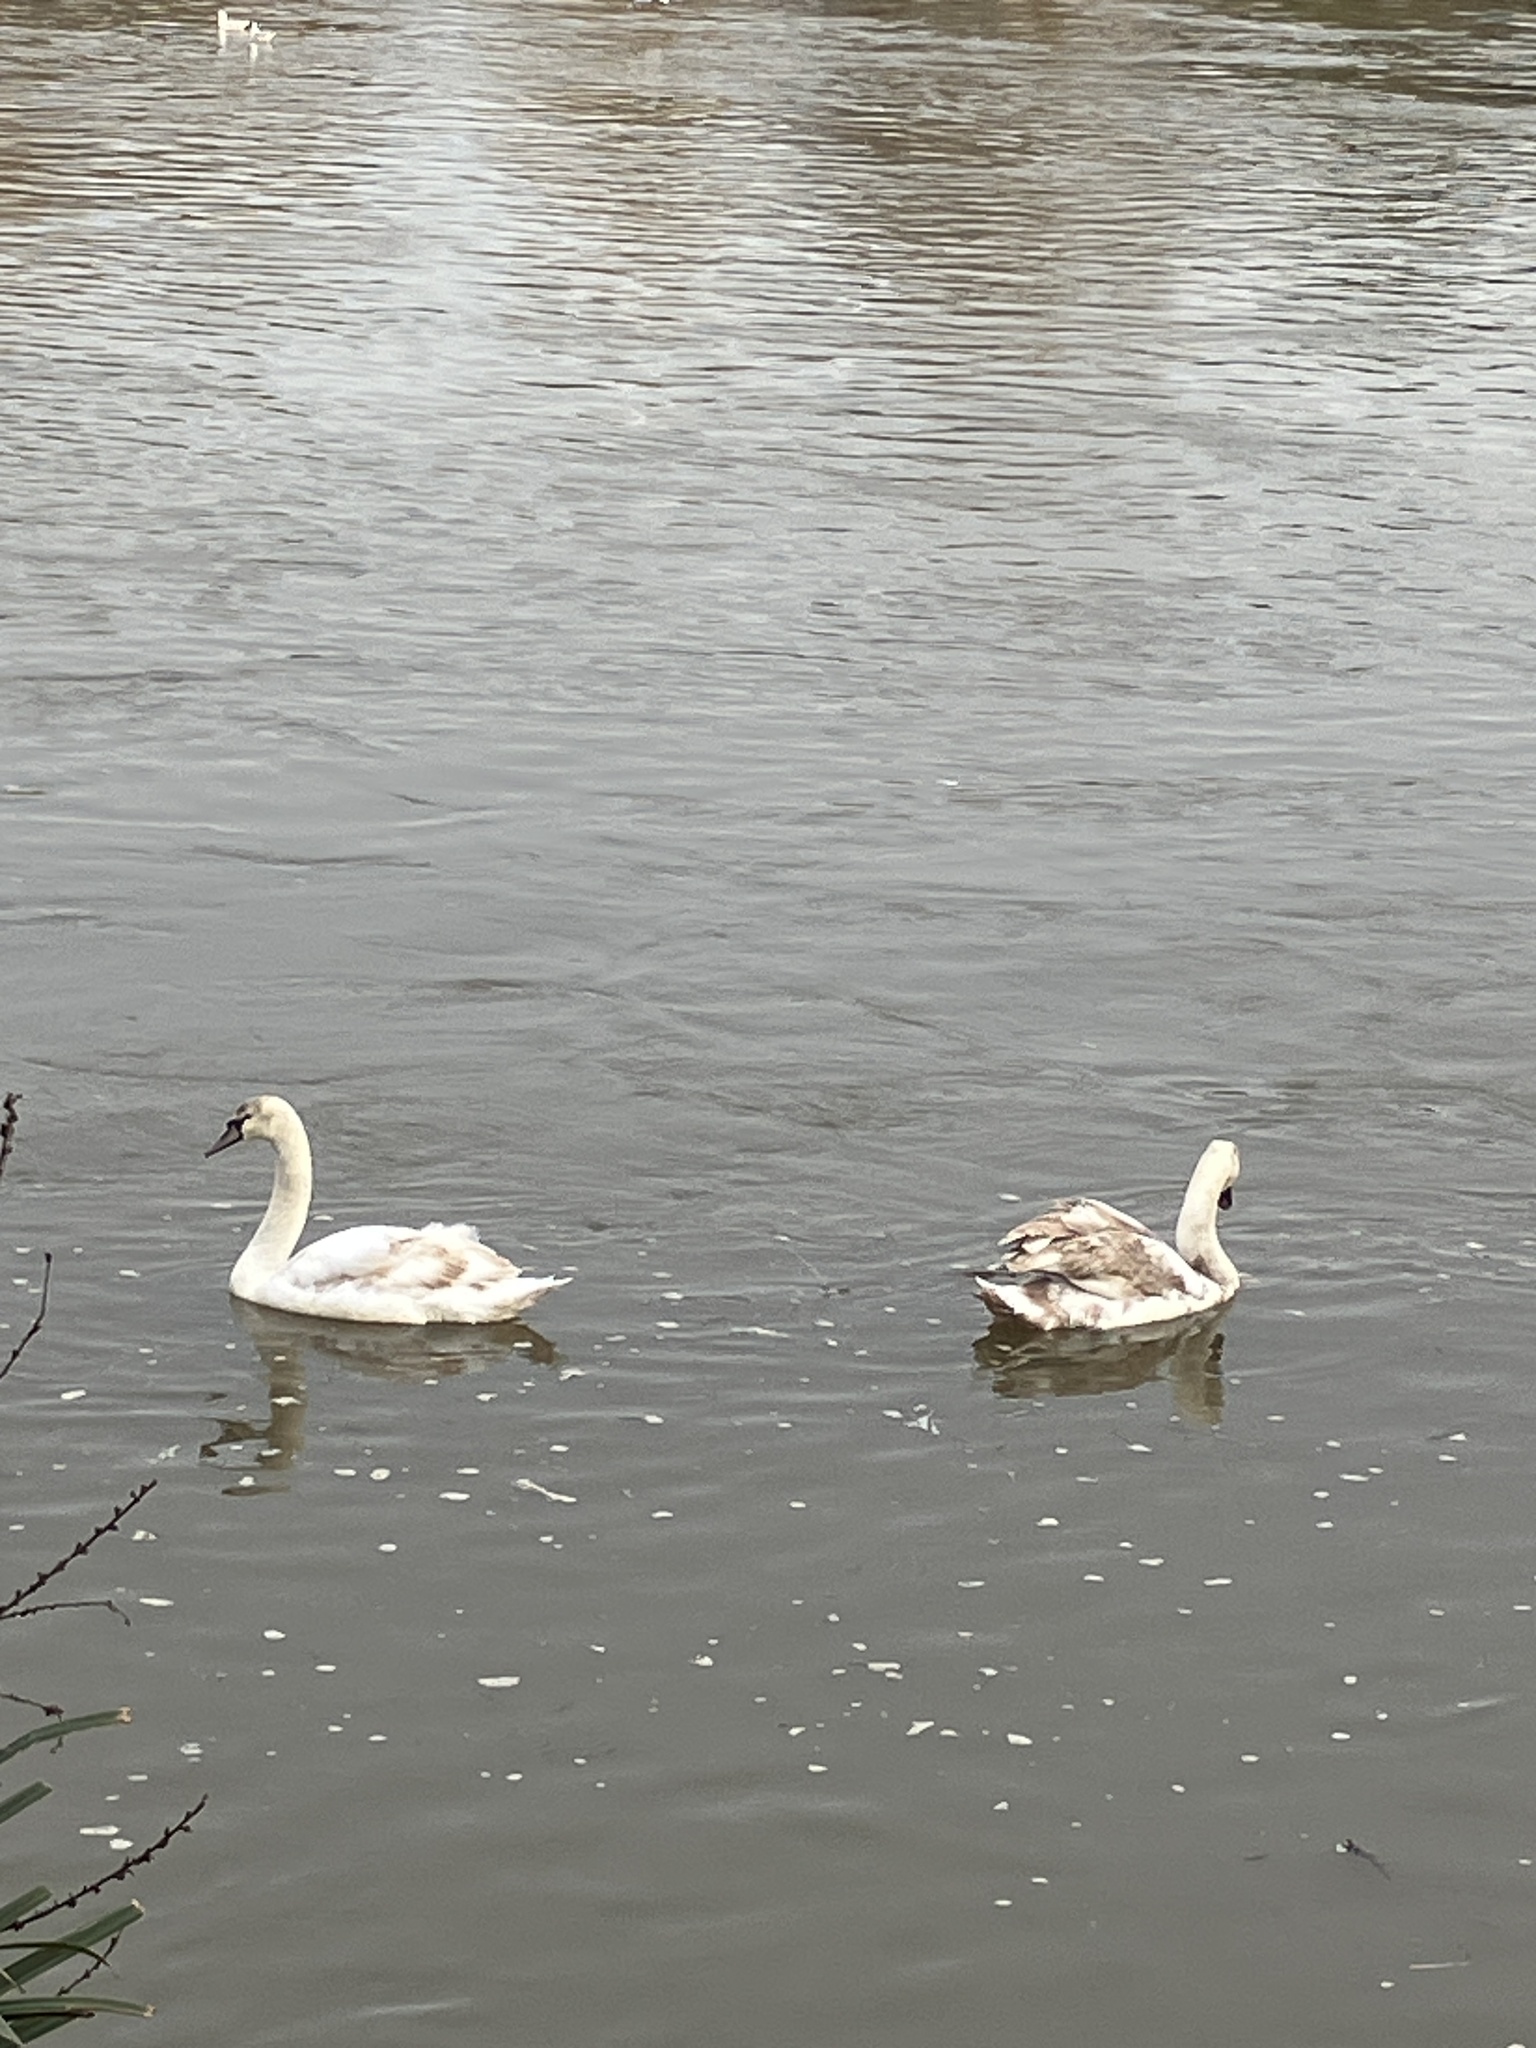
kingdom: Animalia
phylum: Chordata
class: Aves
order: Anseriformes
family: Anatidae
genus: Cygnus
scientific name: Cygnus olor
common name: Mute swan
